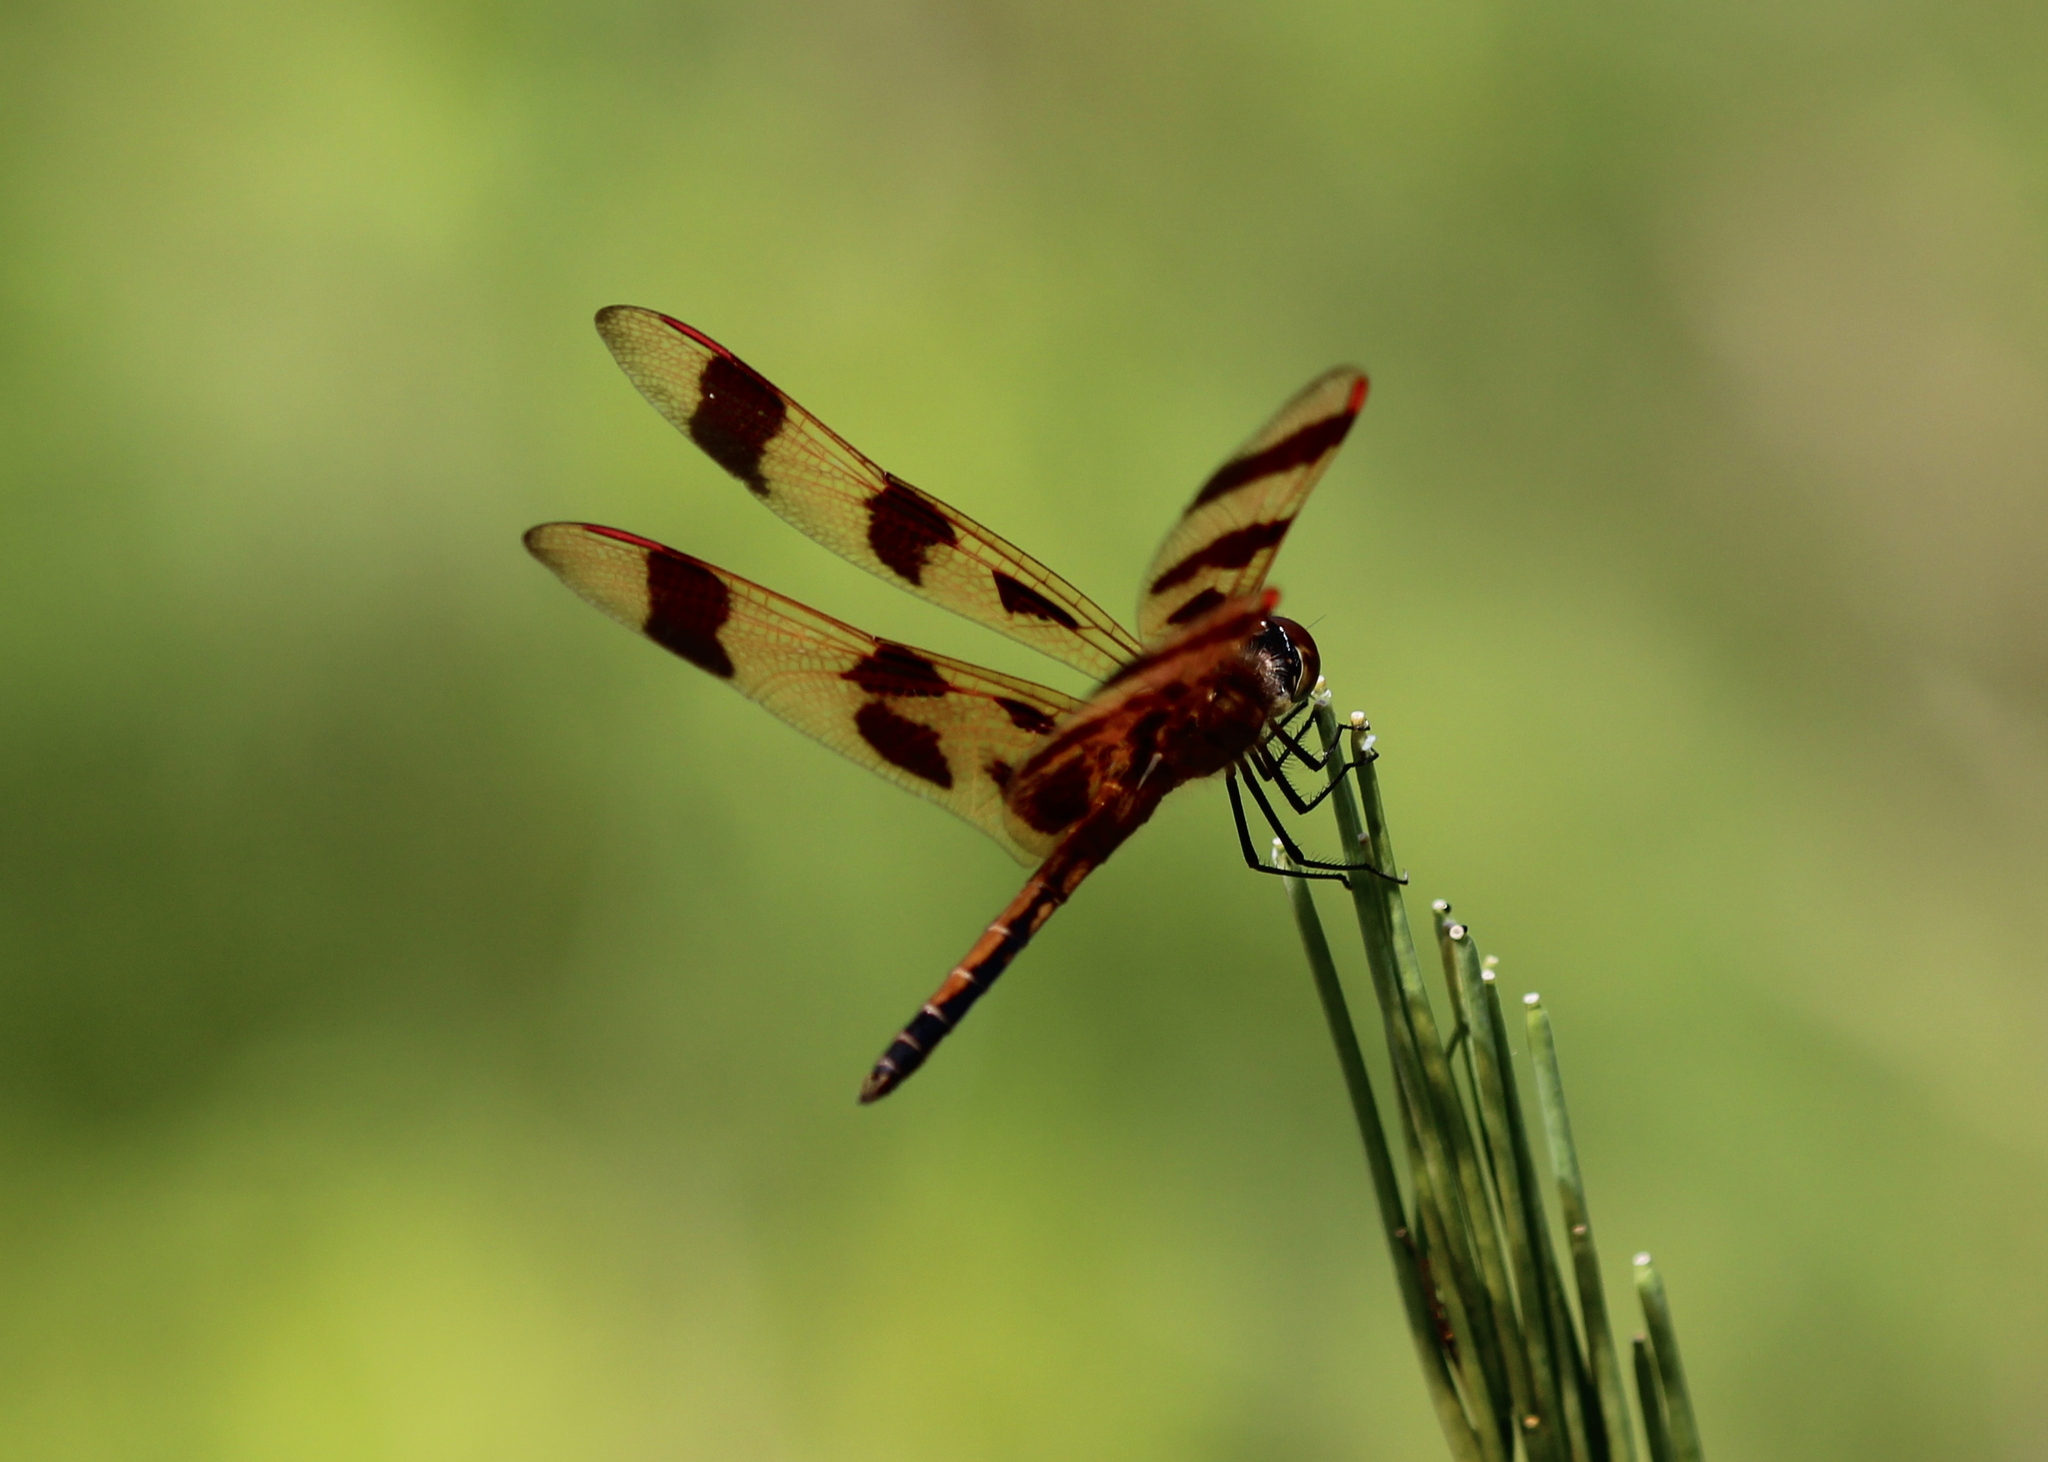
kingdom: Animalia
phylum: Arthropoda
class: Insecta
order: Odonata
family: Libellulidae
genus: Celithemis
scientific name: Celithemis eponina
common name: Halloween pennant
